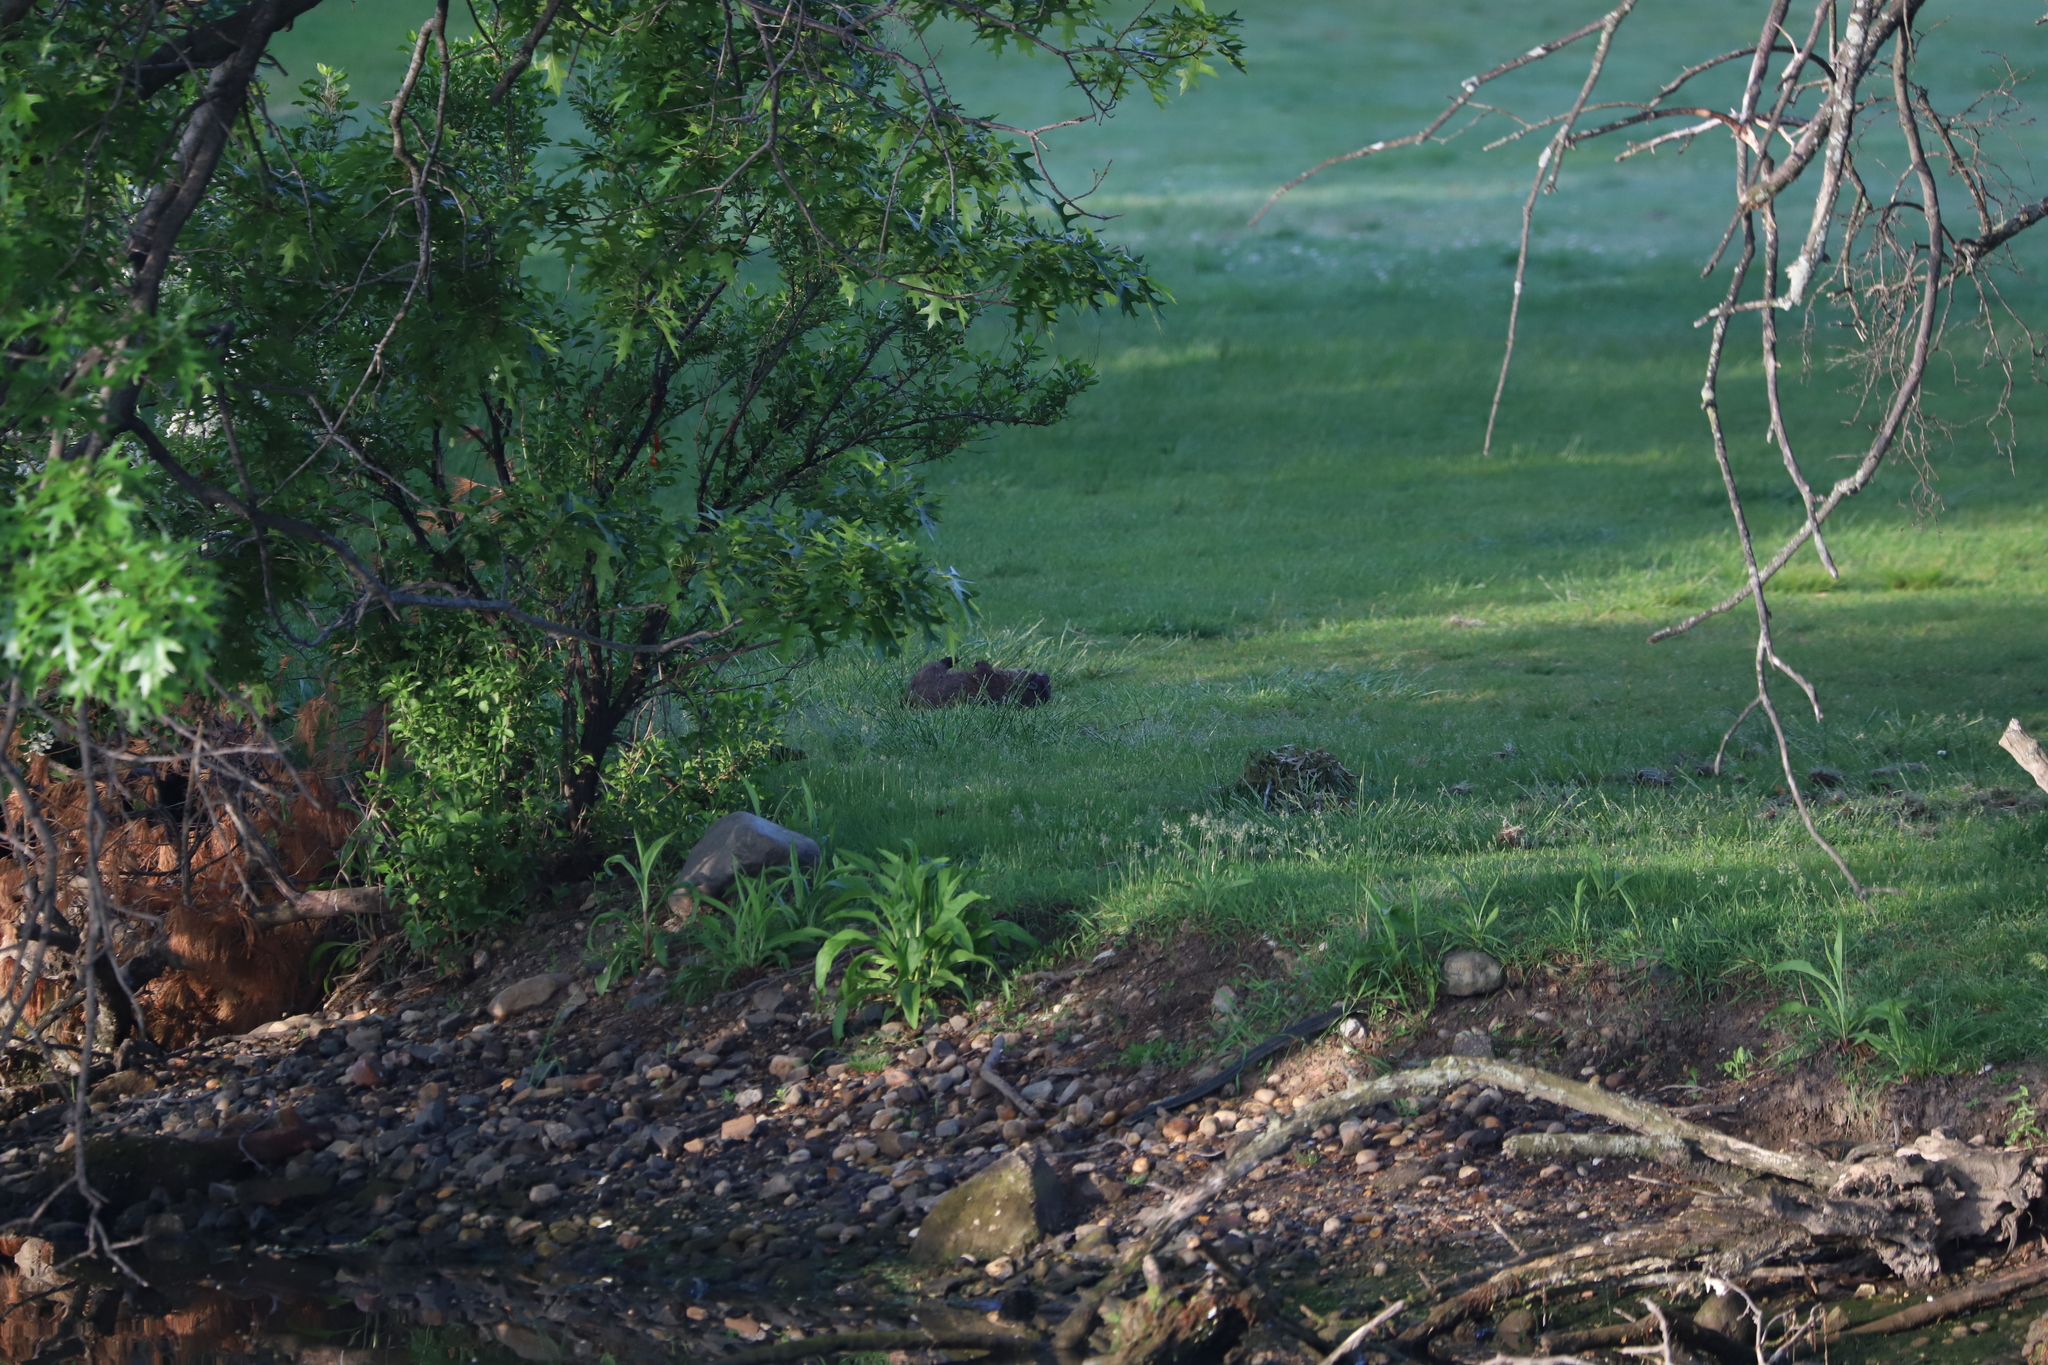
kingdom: Animalia
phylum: Chordata
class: Mammalia
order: Rodentia
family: Sciuridae
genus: Marmota
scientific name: Marmota monax
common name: Groundhog
